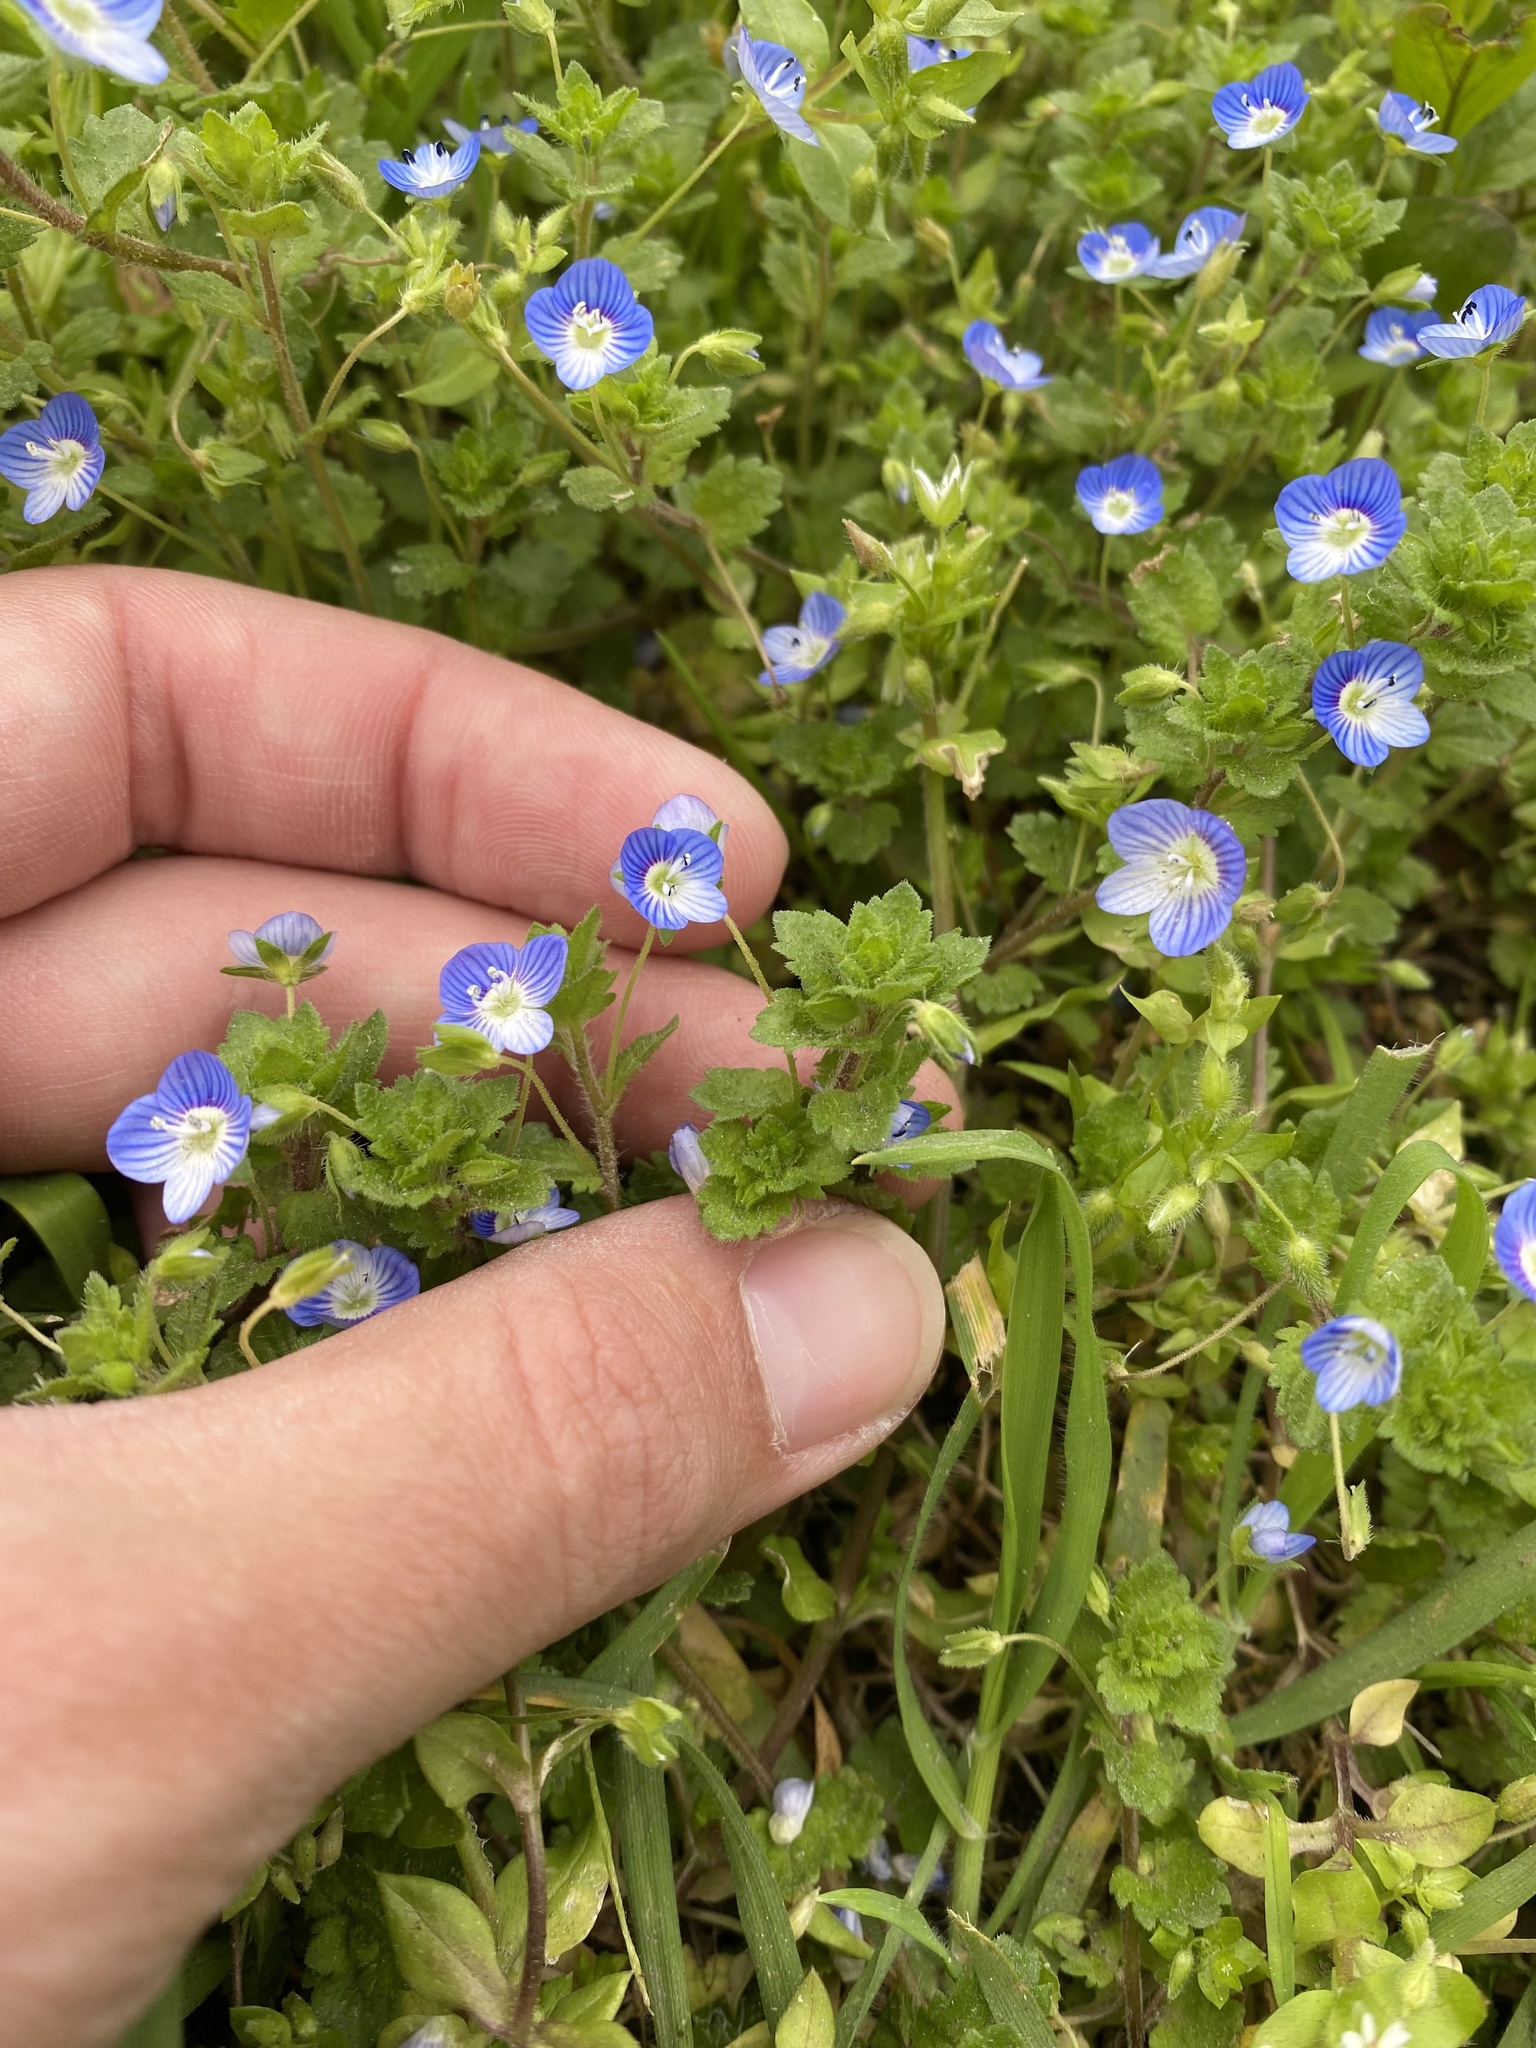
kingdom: Plantae
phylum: Tracheophyta
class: Magnoliopsida
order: Lamiales
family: Plantaginaceae
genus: Veronica
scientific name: Veronica persica
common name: Common field-speedwell
